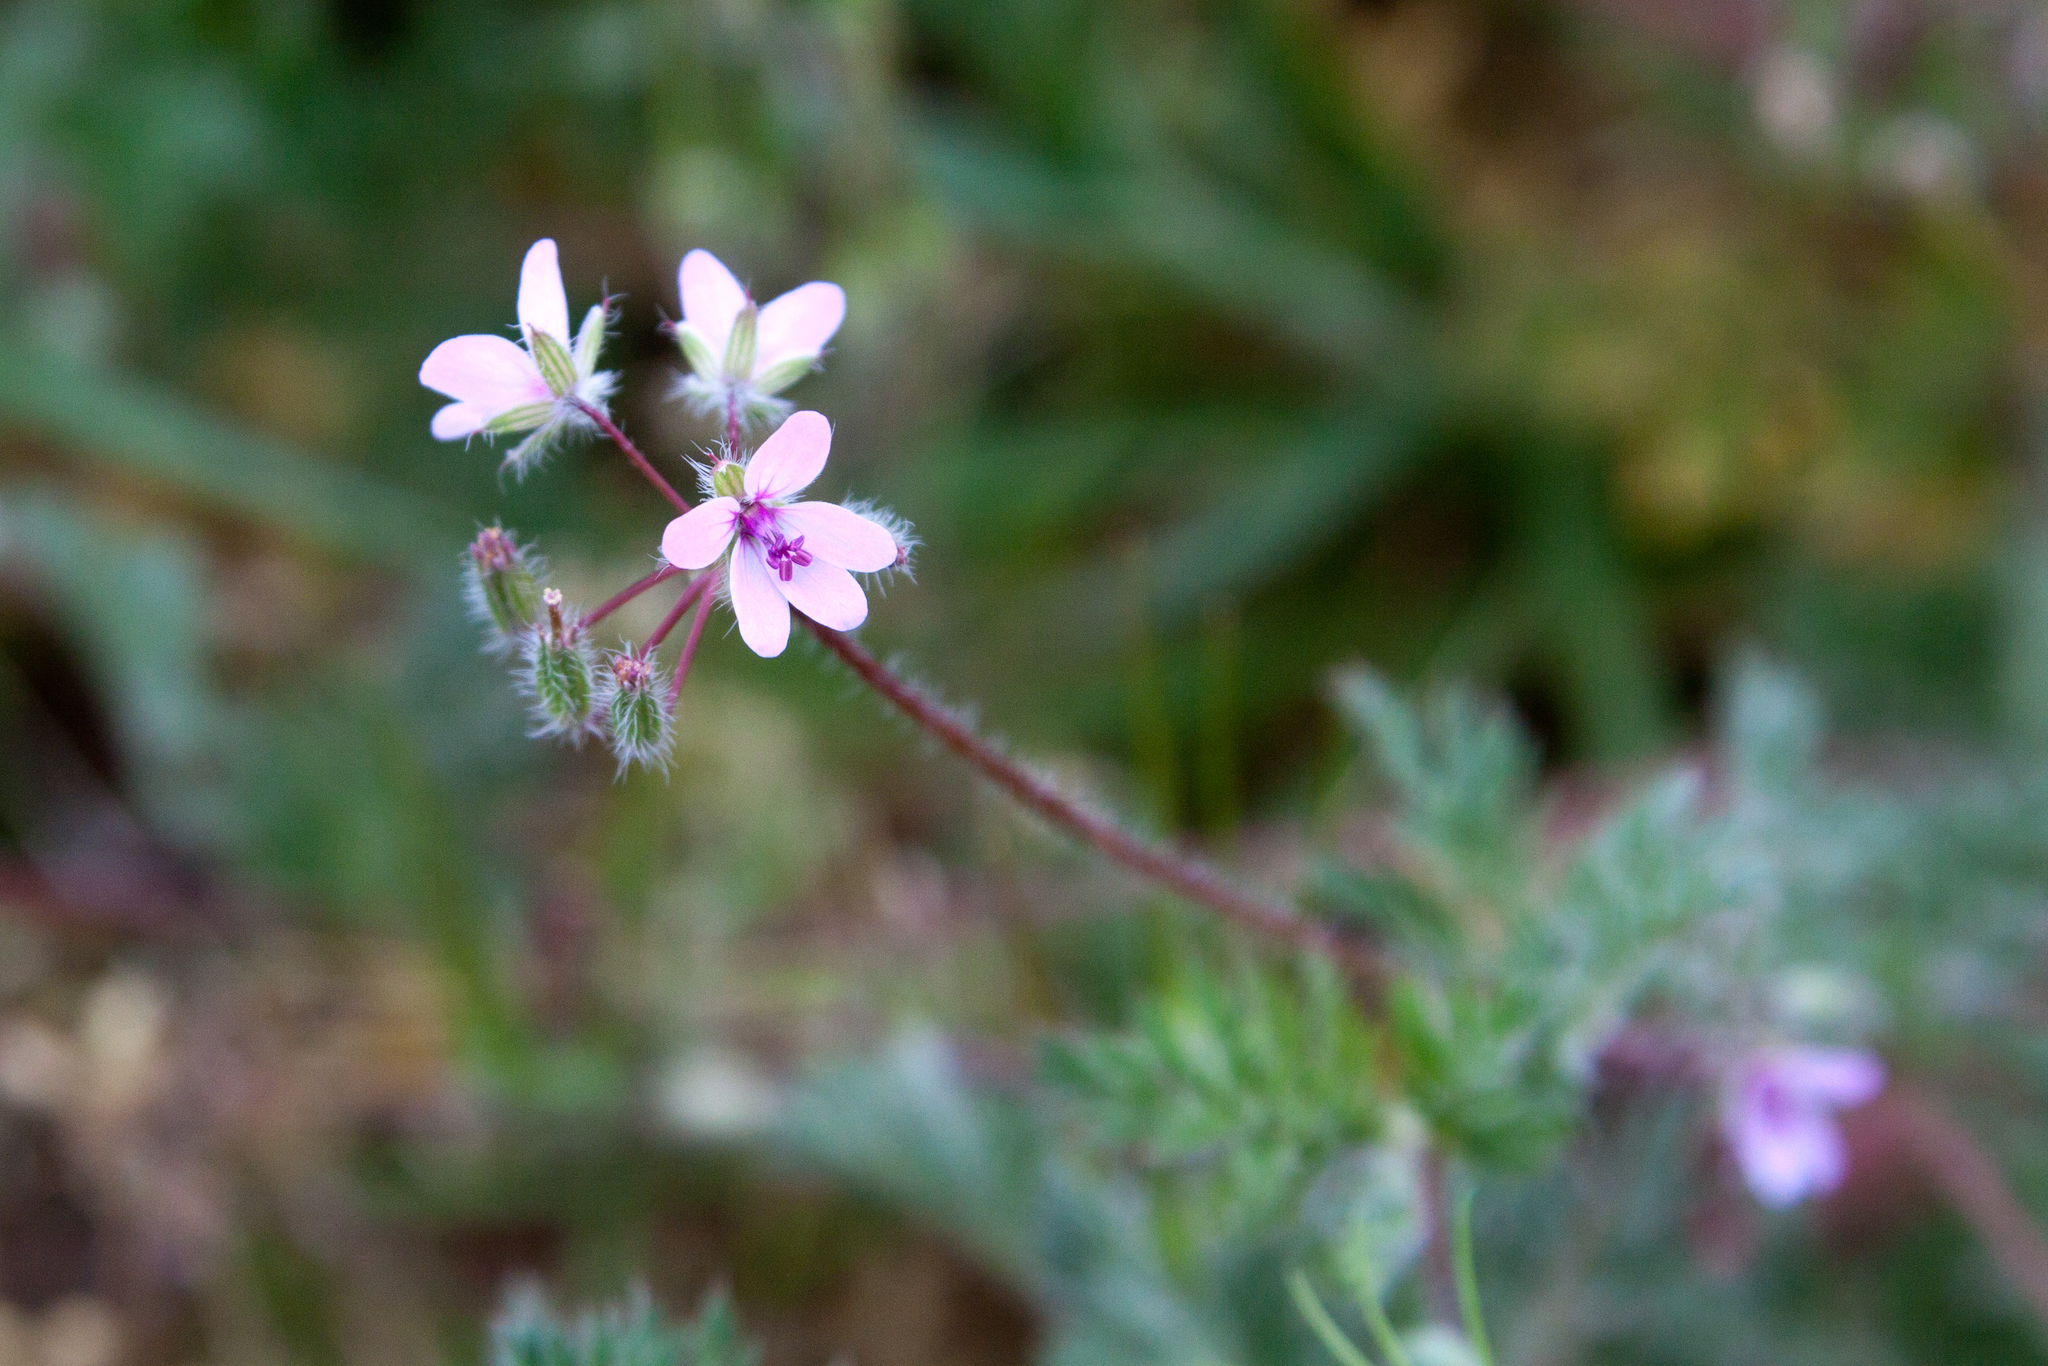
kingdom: Plantae
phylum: Tracheophyta
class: Magnoliopsida
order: Geraniales
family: Geraniaceae
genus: Erodium
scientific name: Erodium cicutarium
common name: Common stork's-bill
